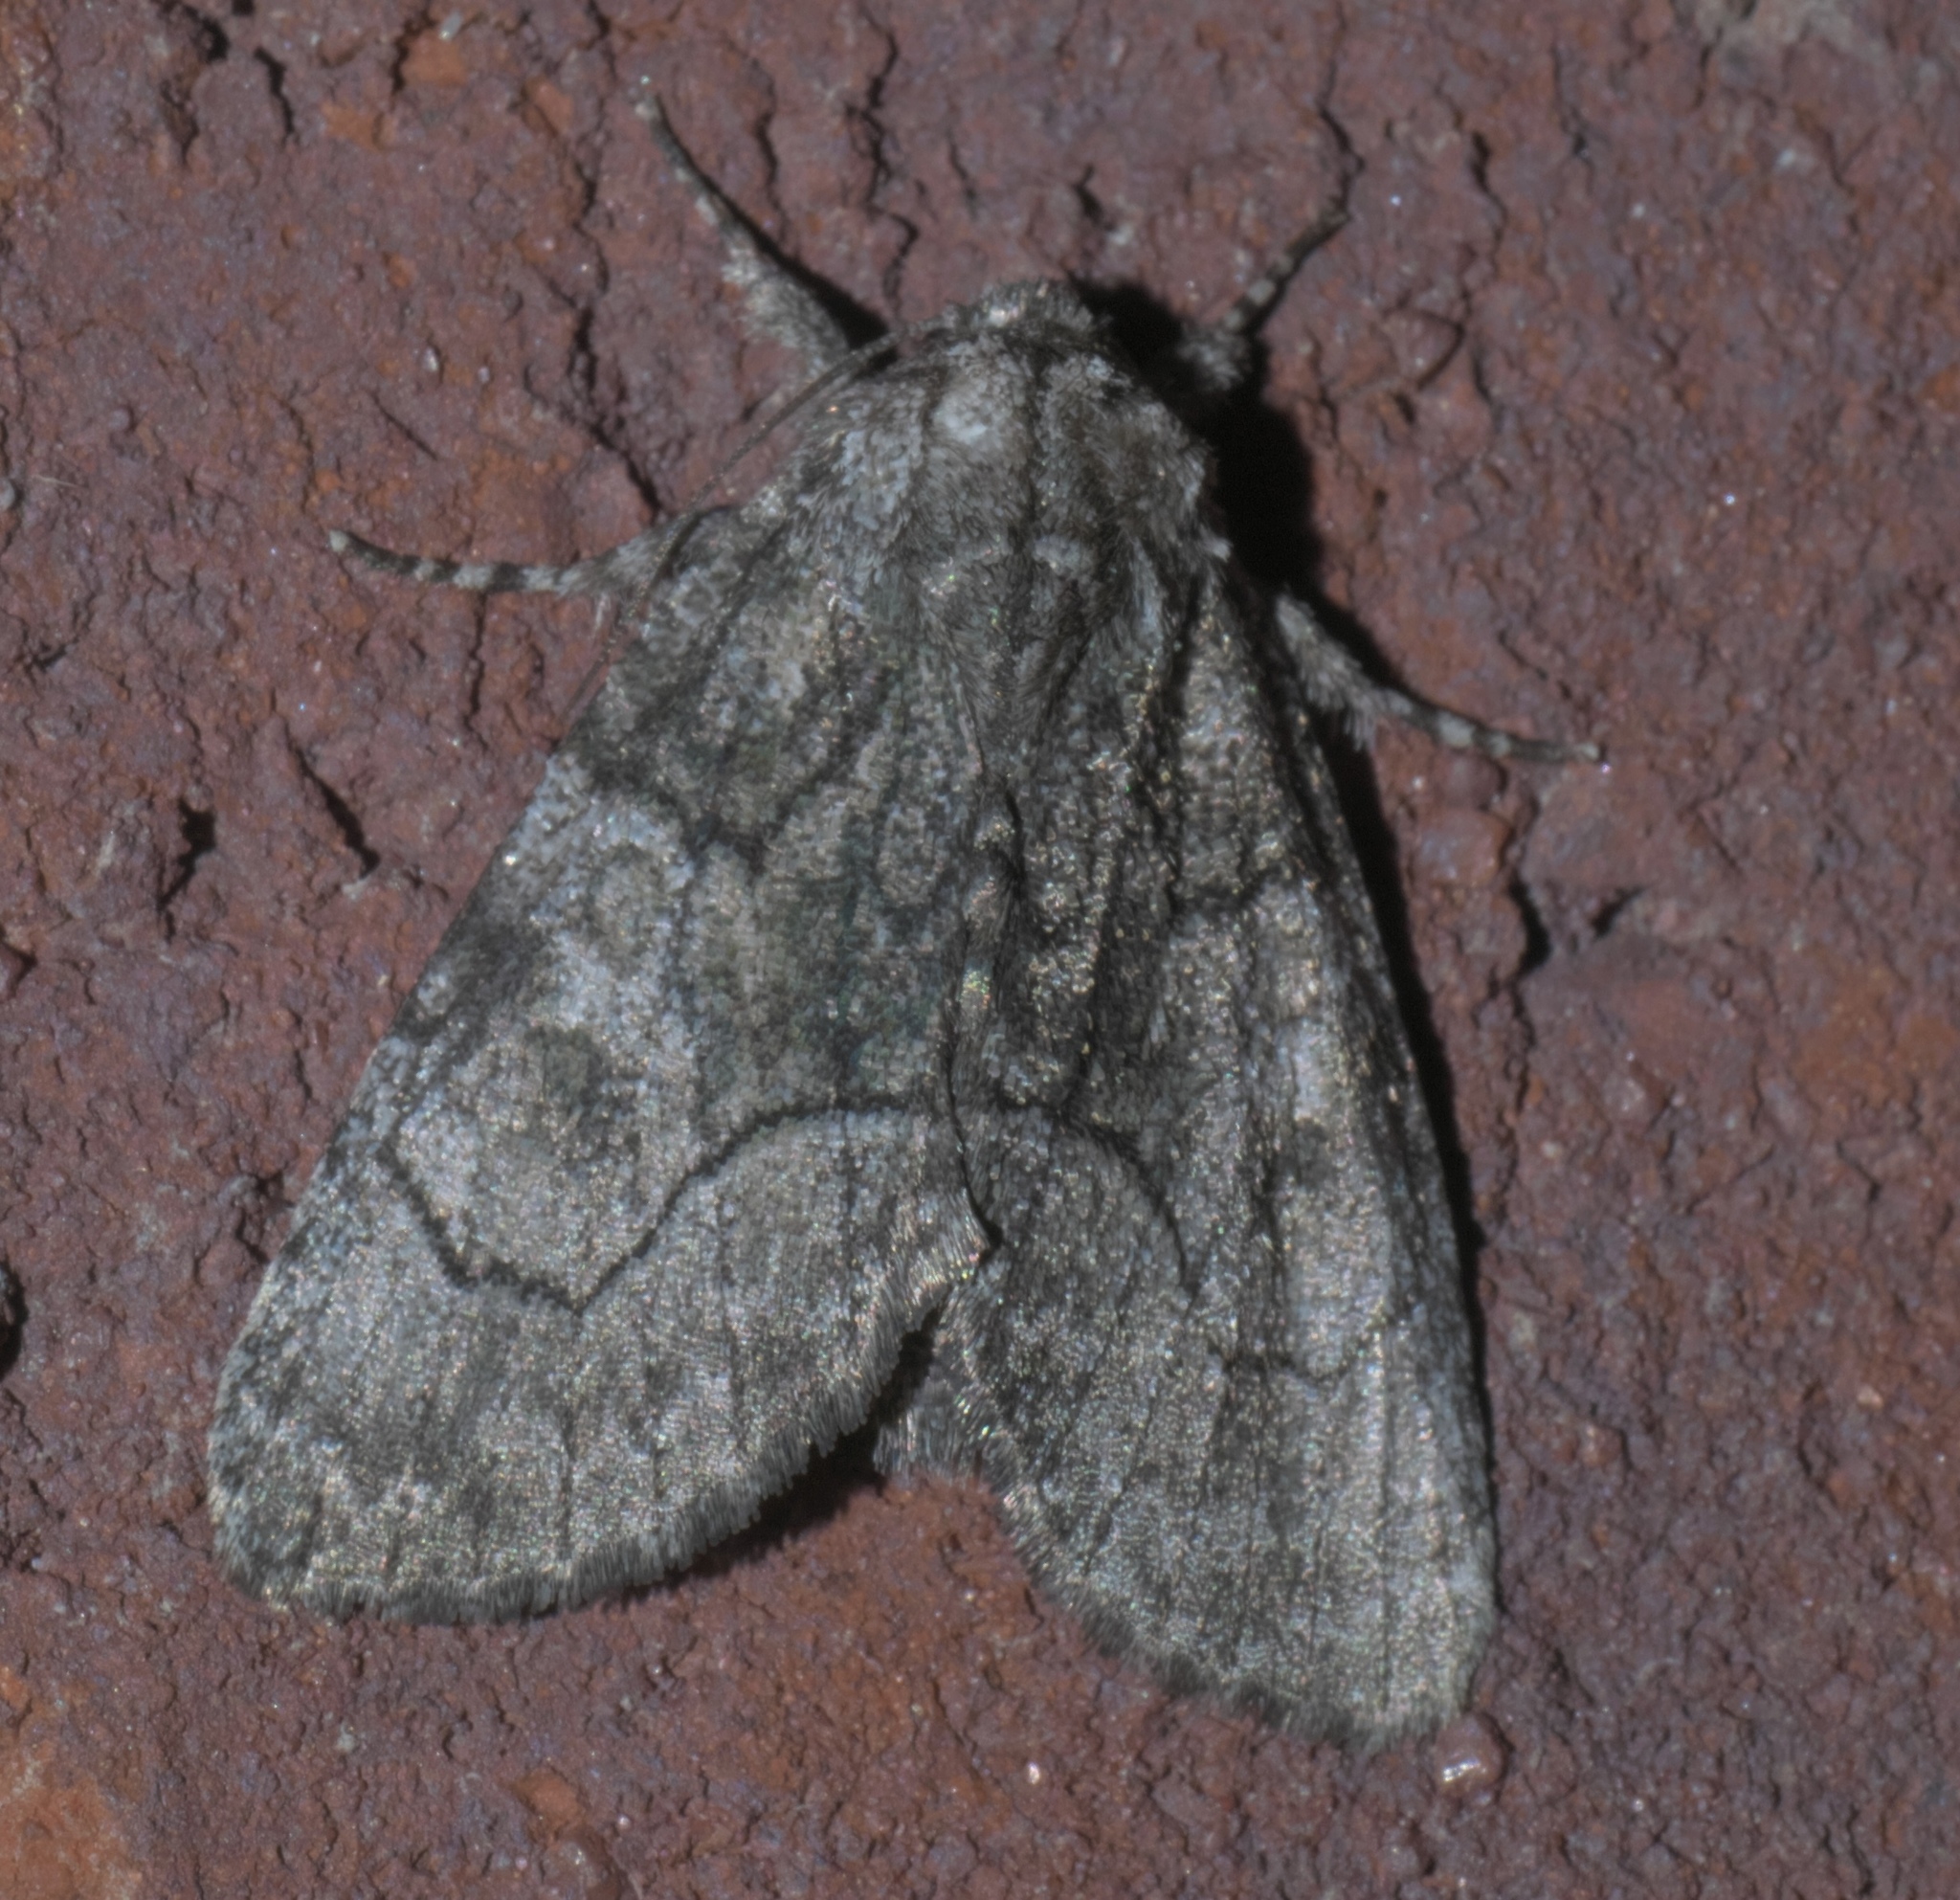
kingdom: Animalia
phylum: Arthropoda
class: Insecta
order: Lepidoptera
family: Noctuidae
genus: Raphia
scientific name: Raphia frater
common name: Brother
